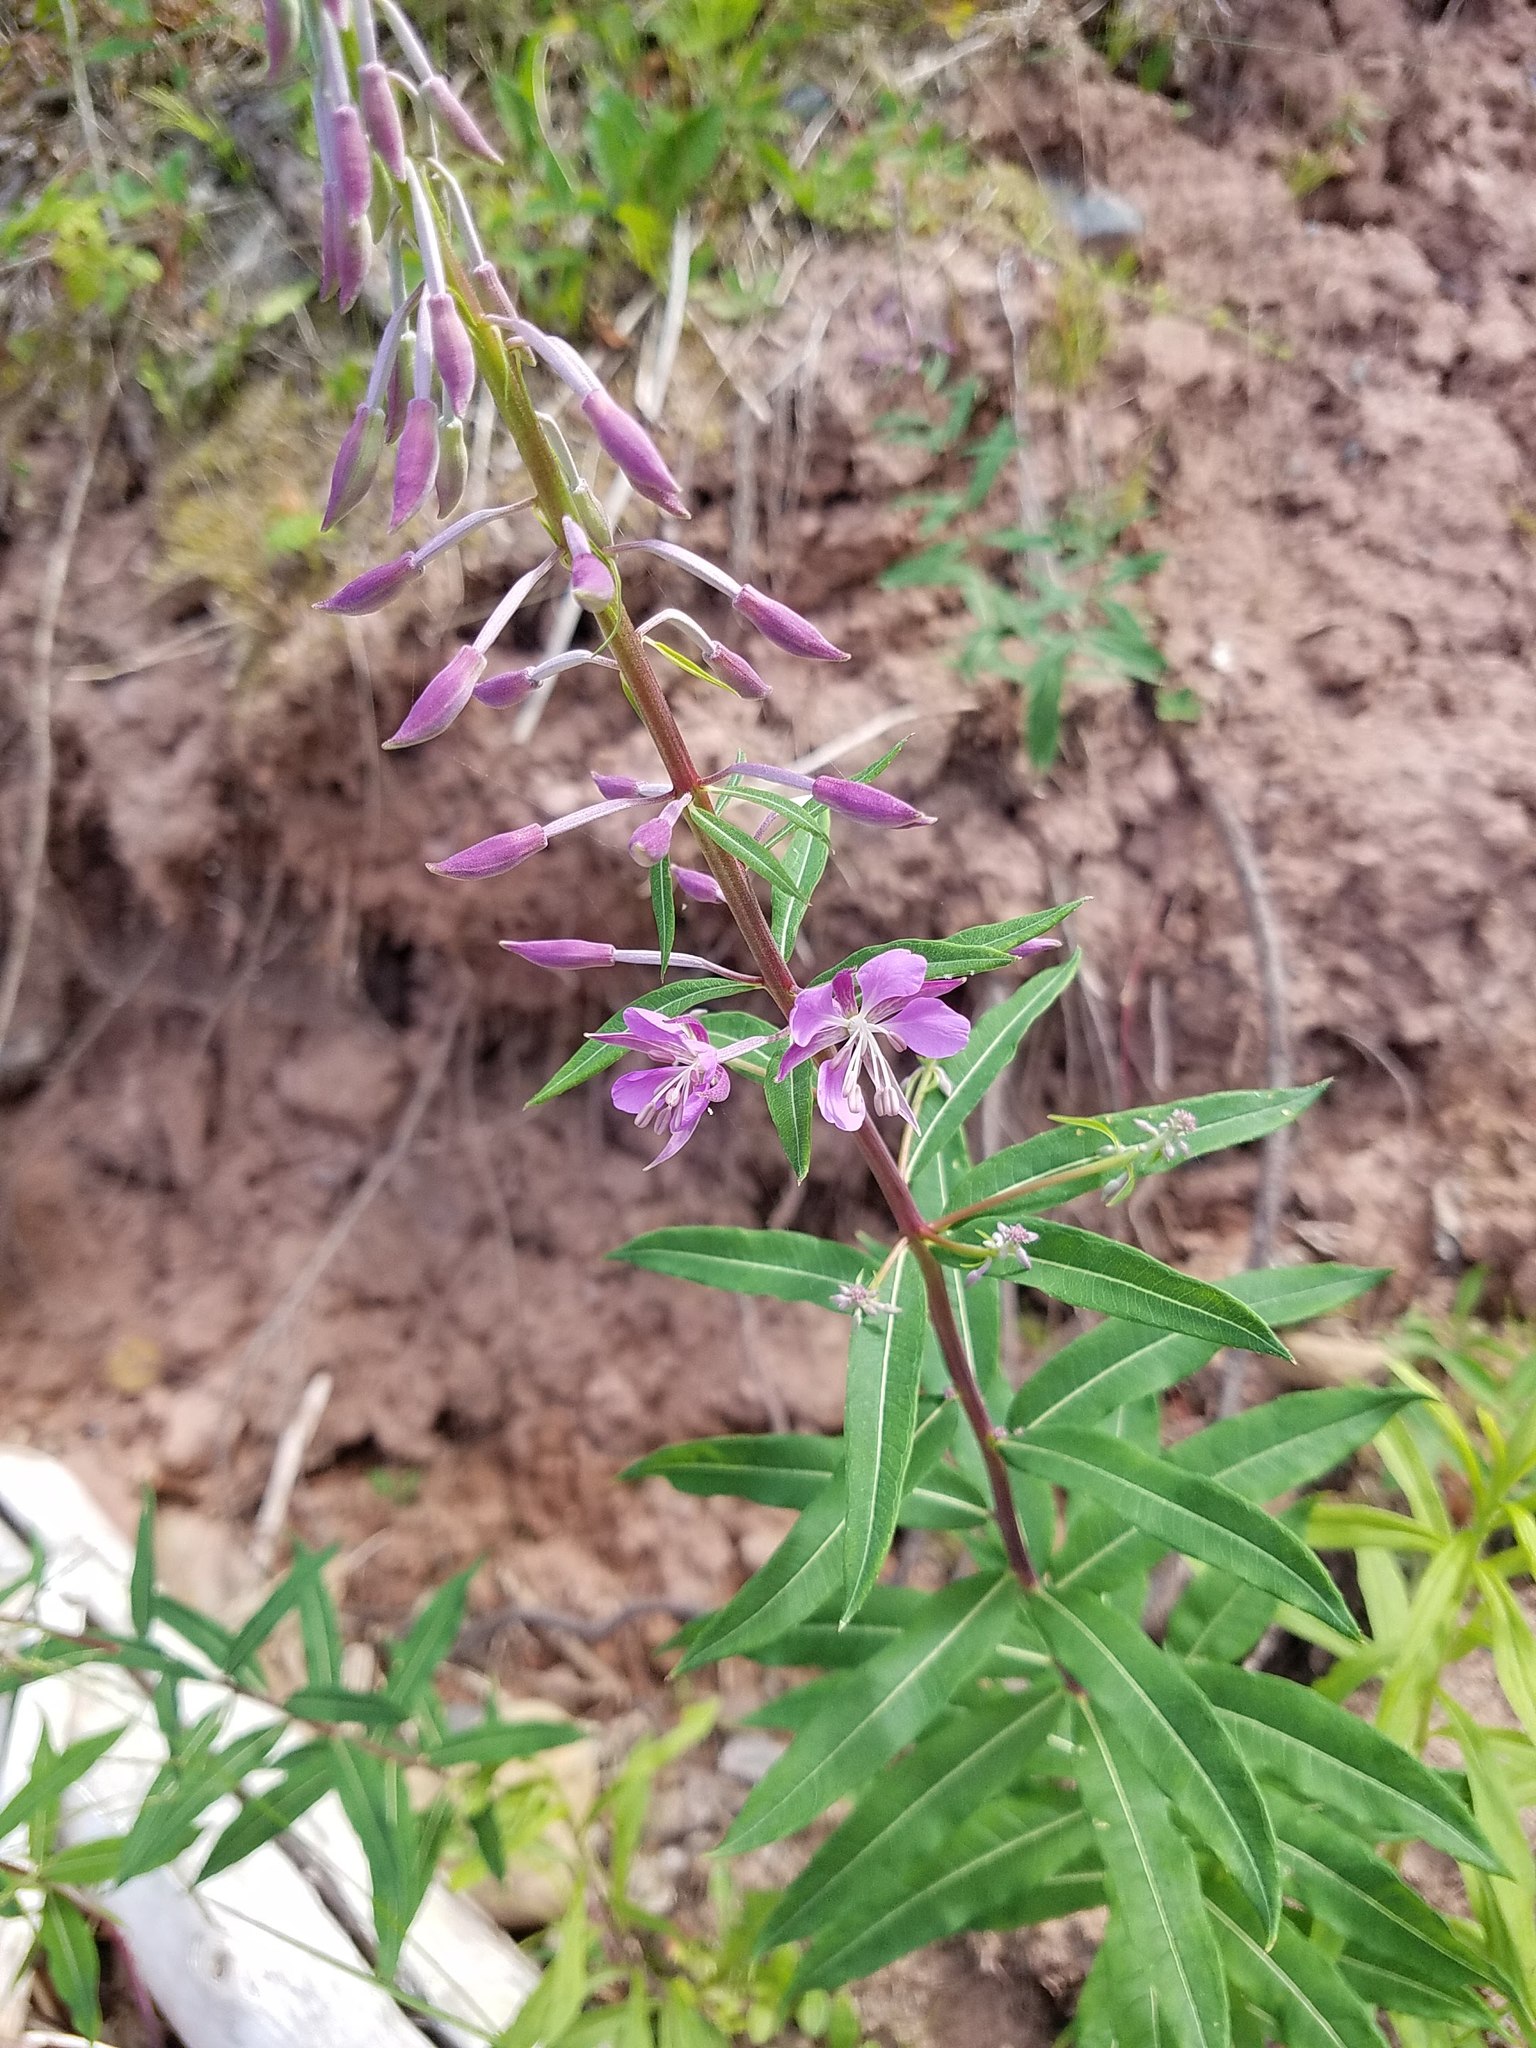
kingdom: Plantae
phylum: Tracheophyta
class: Magnoliopsida
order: Myrtales
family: Onagraceae
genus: Chamaenerion
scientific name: Chamaenerion angustifolium
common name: Fireweed
